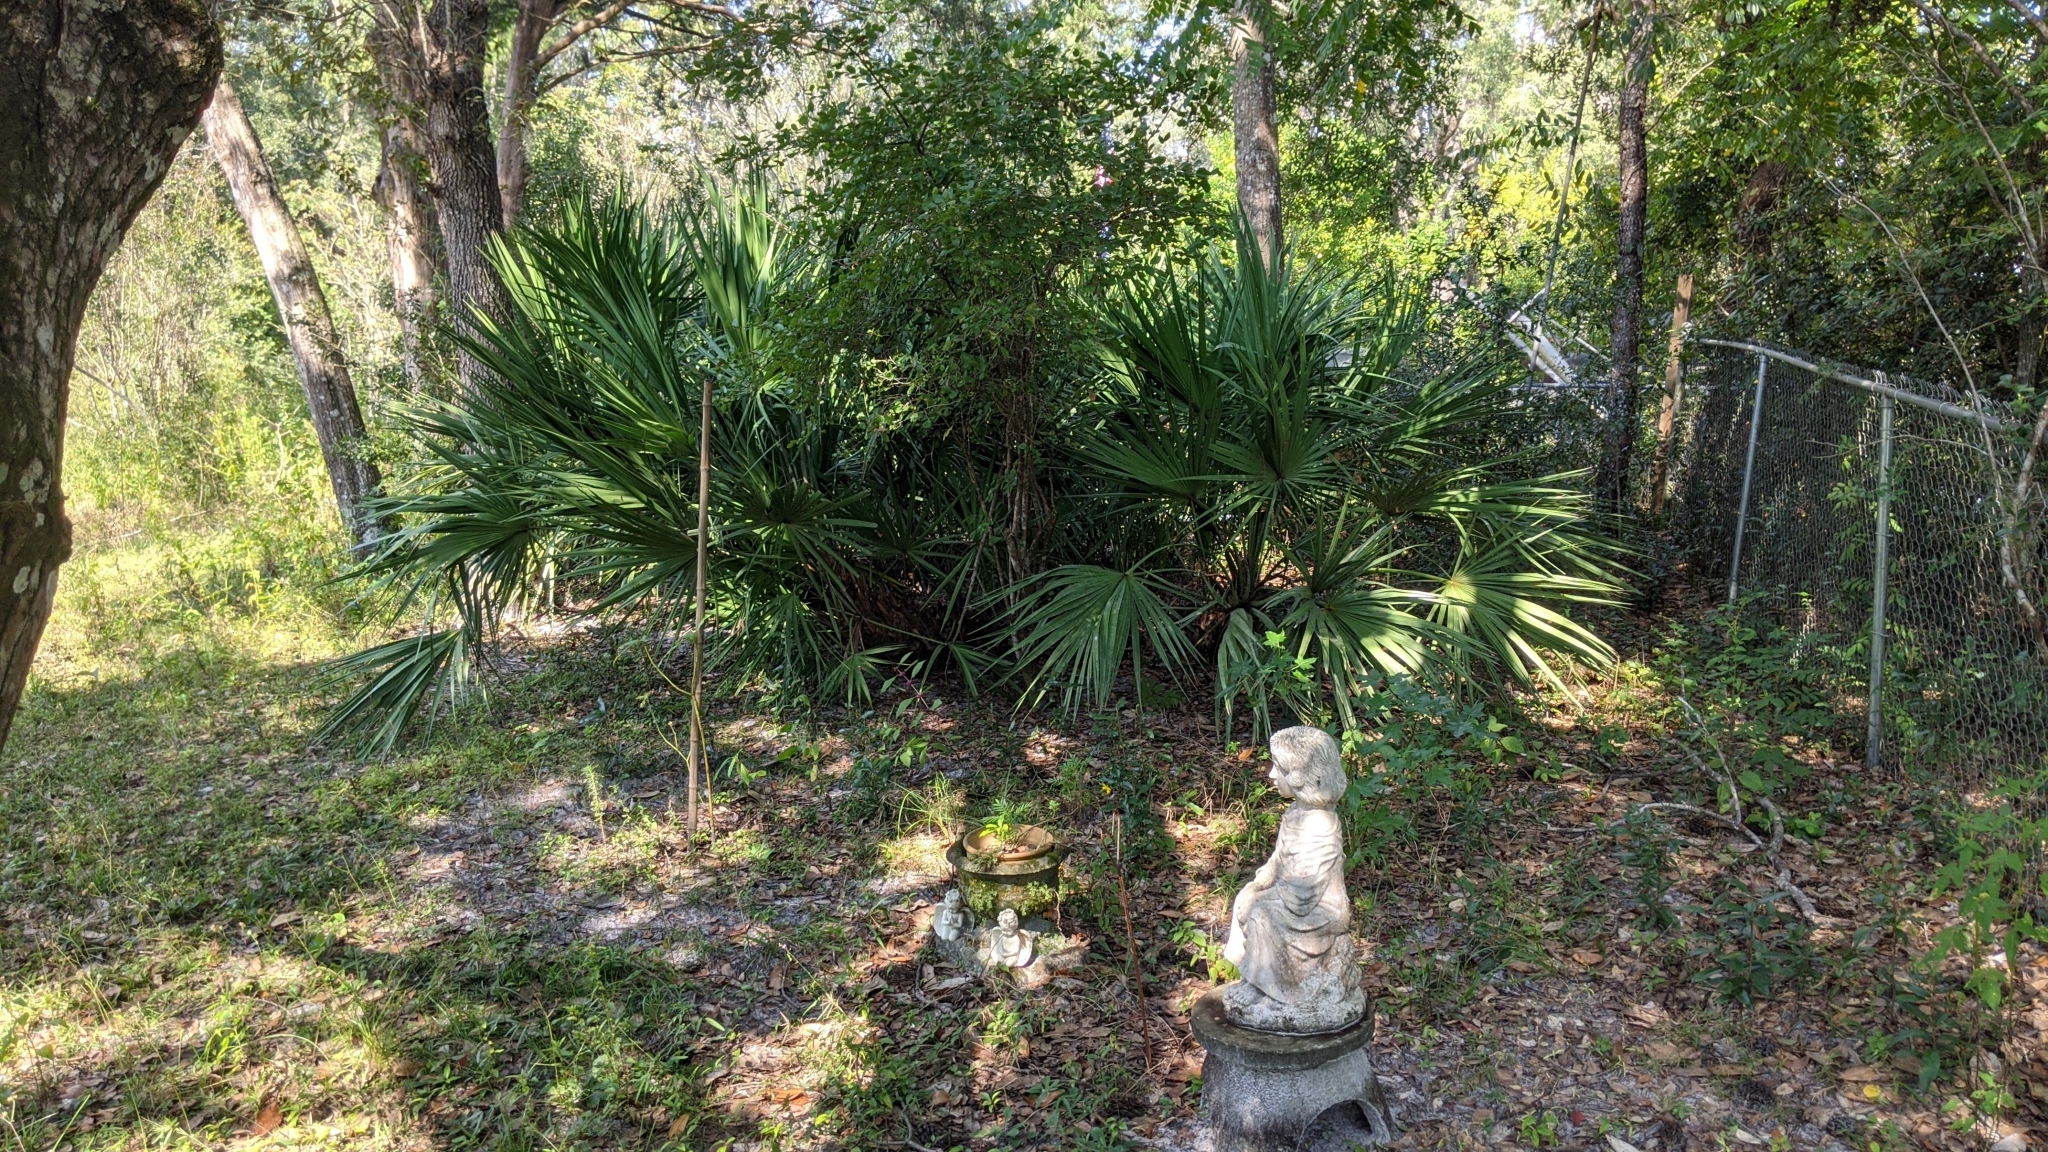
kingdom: Plantae
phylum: Tracheophyta
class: Liliopsida
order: Arecales
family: Arecaceae
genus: Serenoa
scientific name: Serenoa repens
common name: Saw-palmetto
